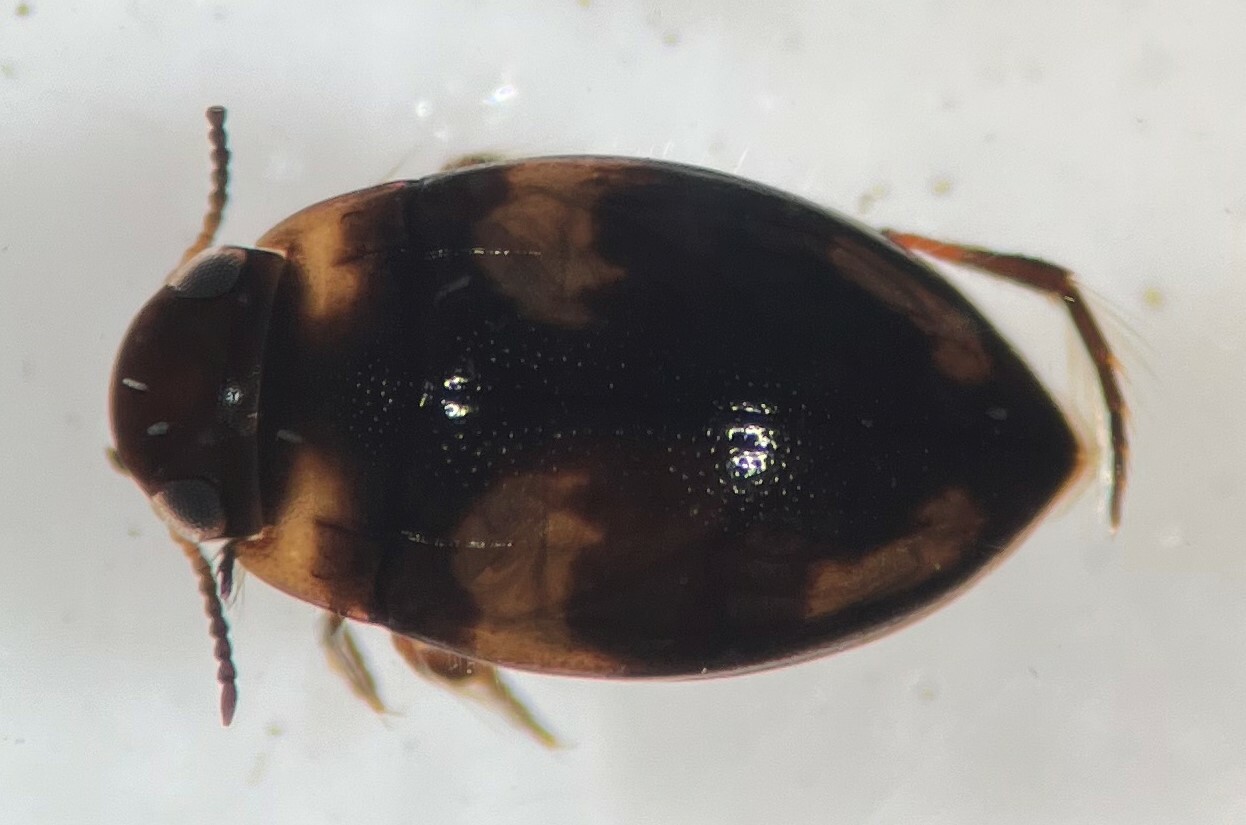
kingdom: Animalia
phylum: Arthropoda
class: Insecta
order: Coleoptera
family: Dytiscidae
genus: Neoclypeodytes
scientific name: Neoclypeodytes fryii
